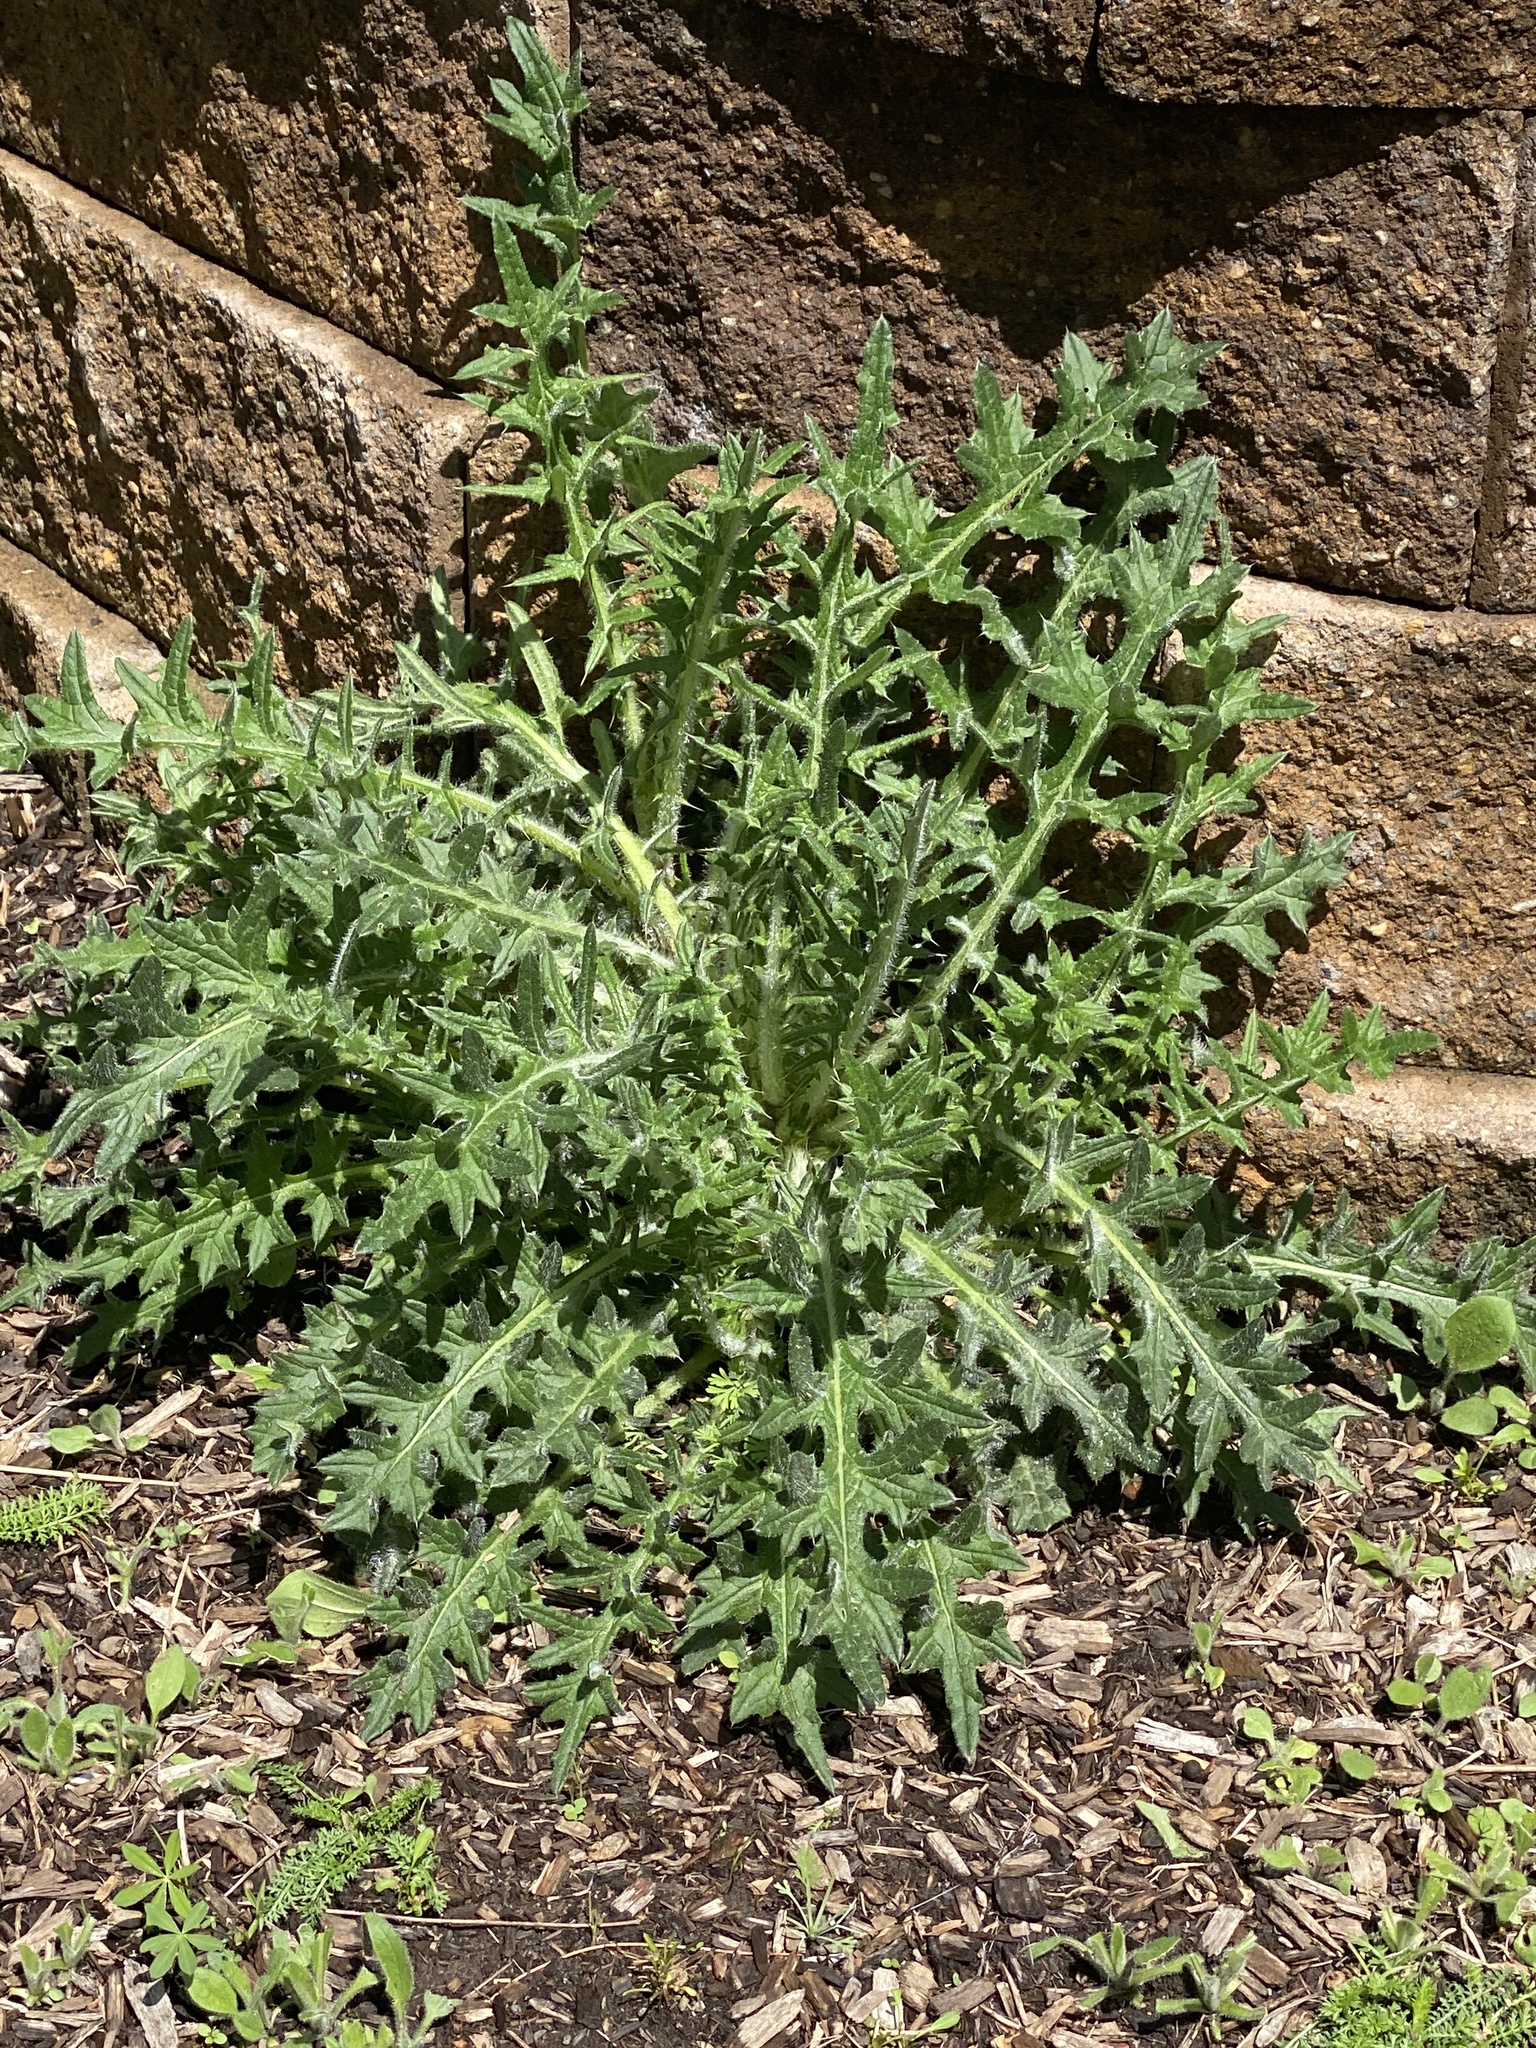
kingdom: Plantae
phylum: Tracheophyta
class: Magnoliopsida
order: Asterales
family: Asteraceae
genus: Cirsium
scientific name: Cirsium vulgare
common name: Bull thistle
